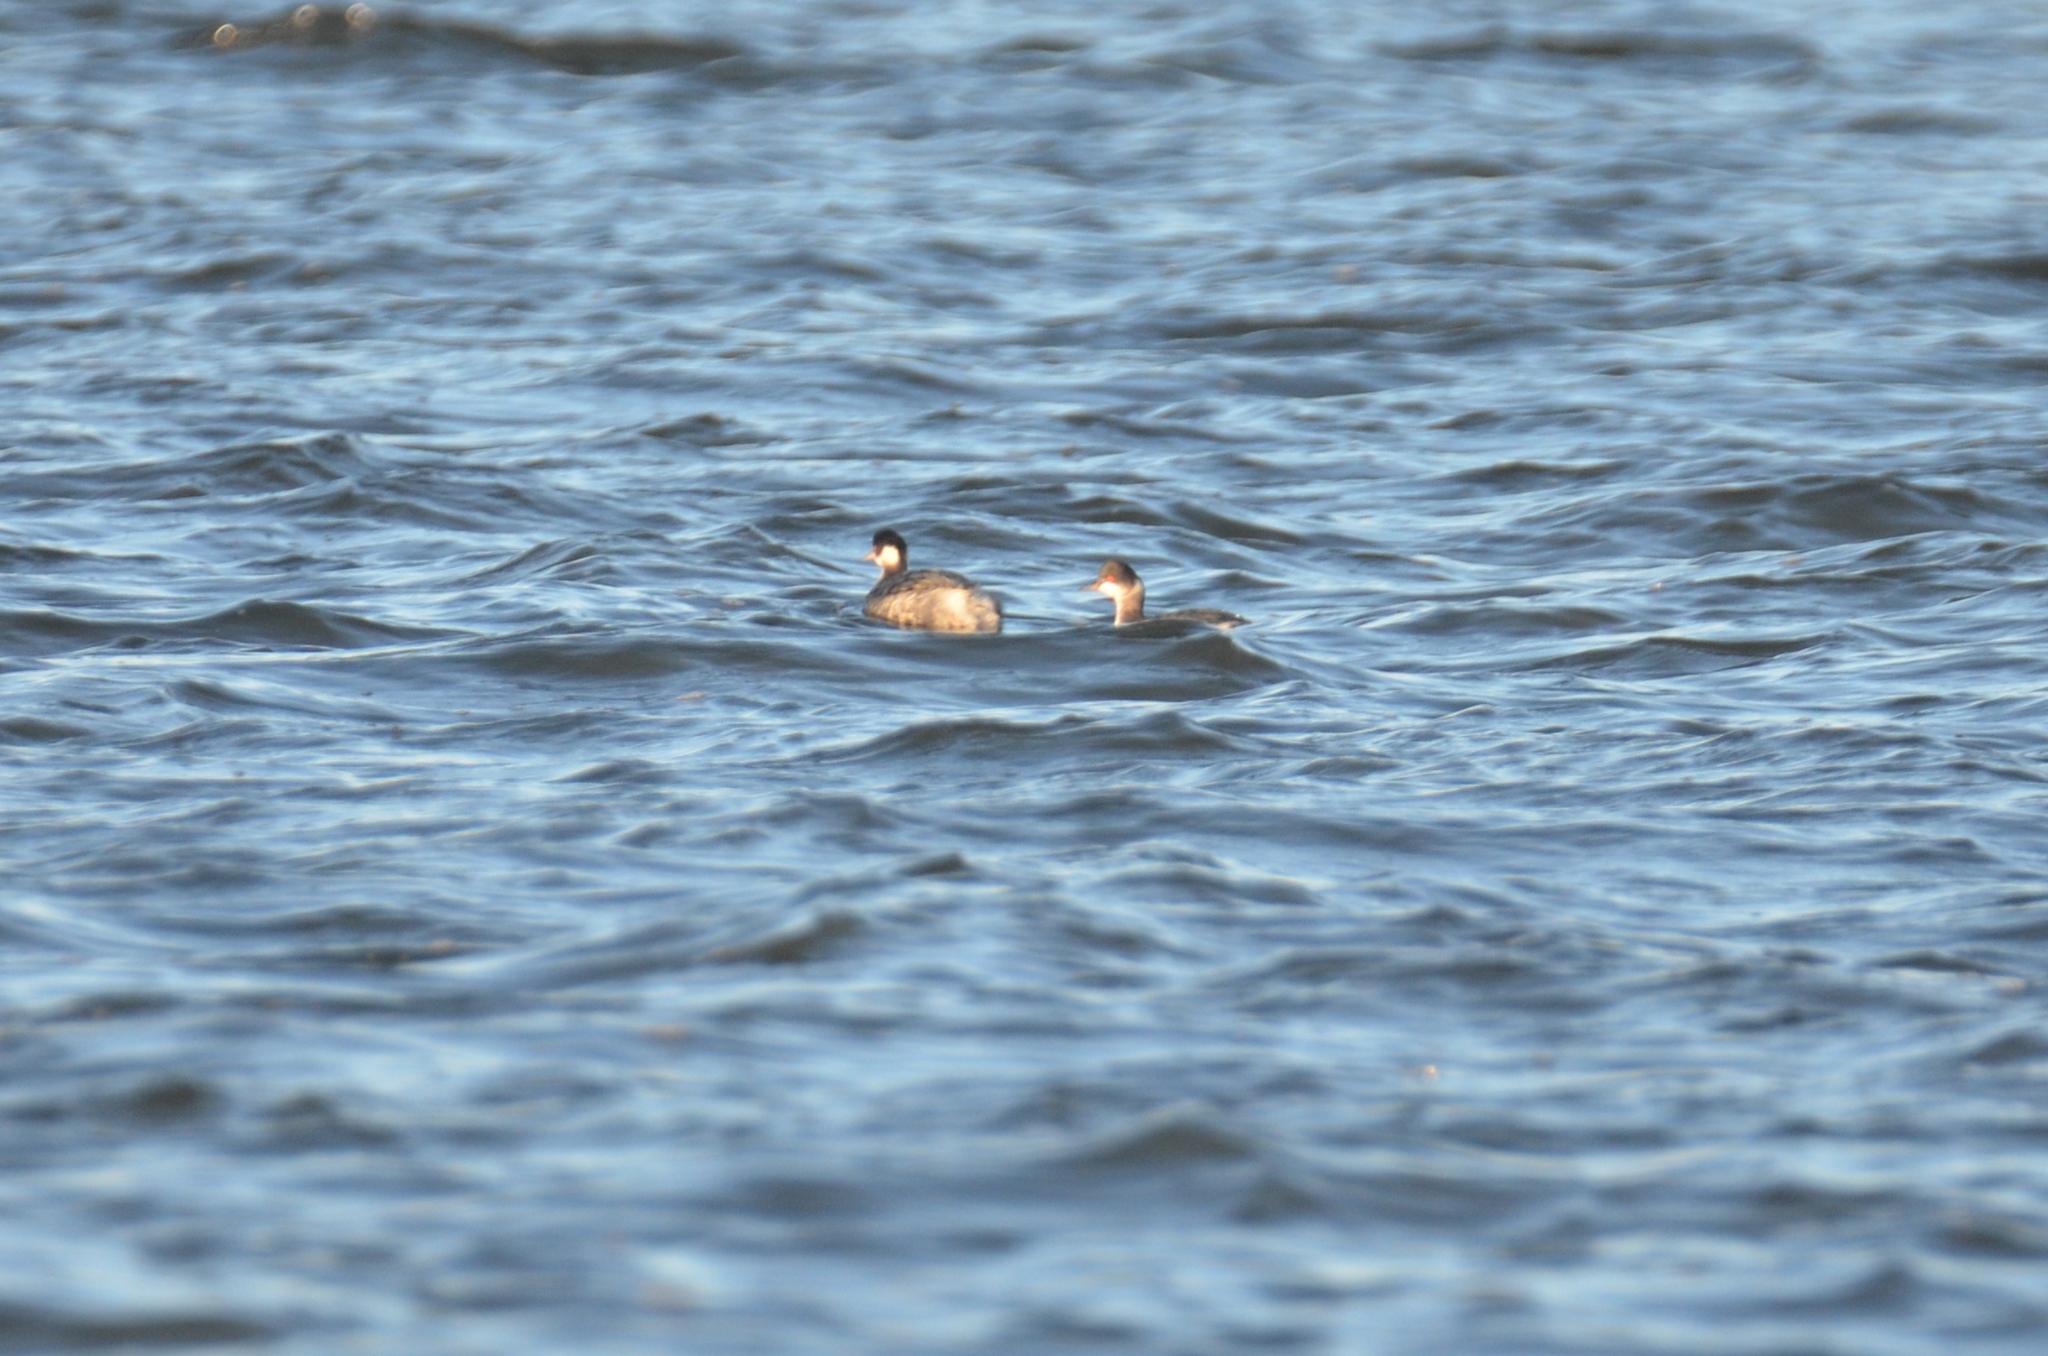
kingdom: Animalia
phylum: Chordata
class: Aves
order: Podicipediformes
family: Podicipedidae
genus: Podiceps
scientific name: Podiceps nigricollis
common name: Black-necked grebe
